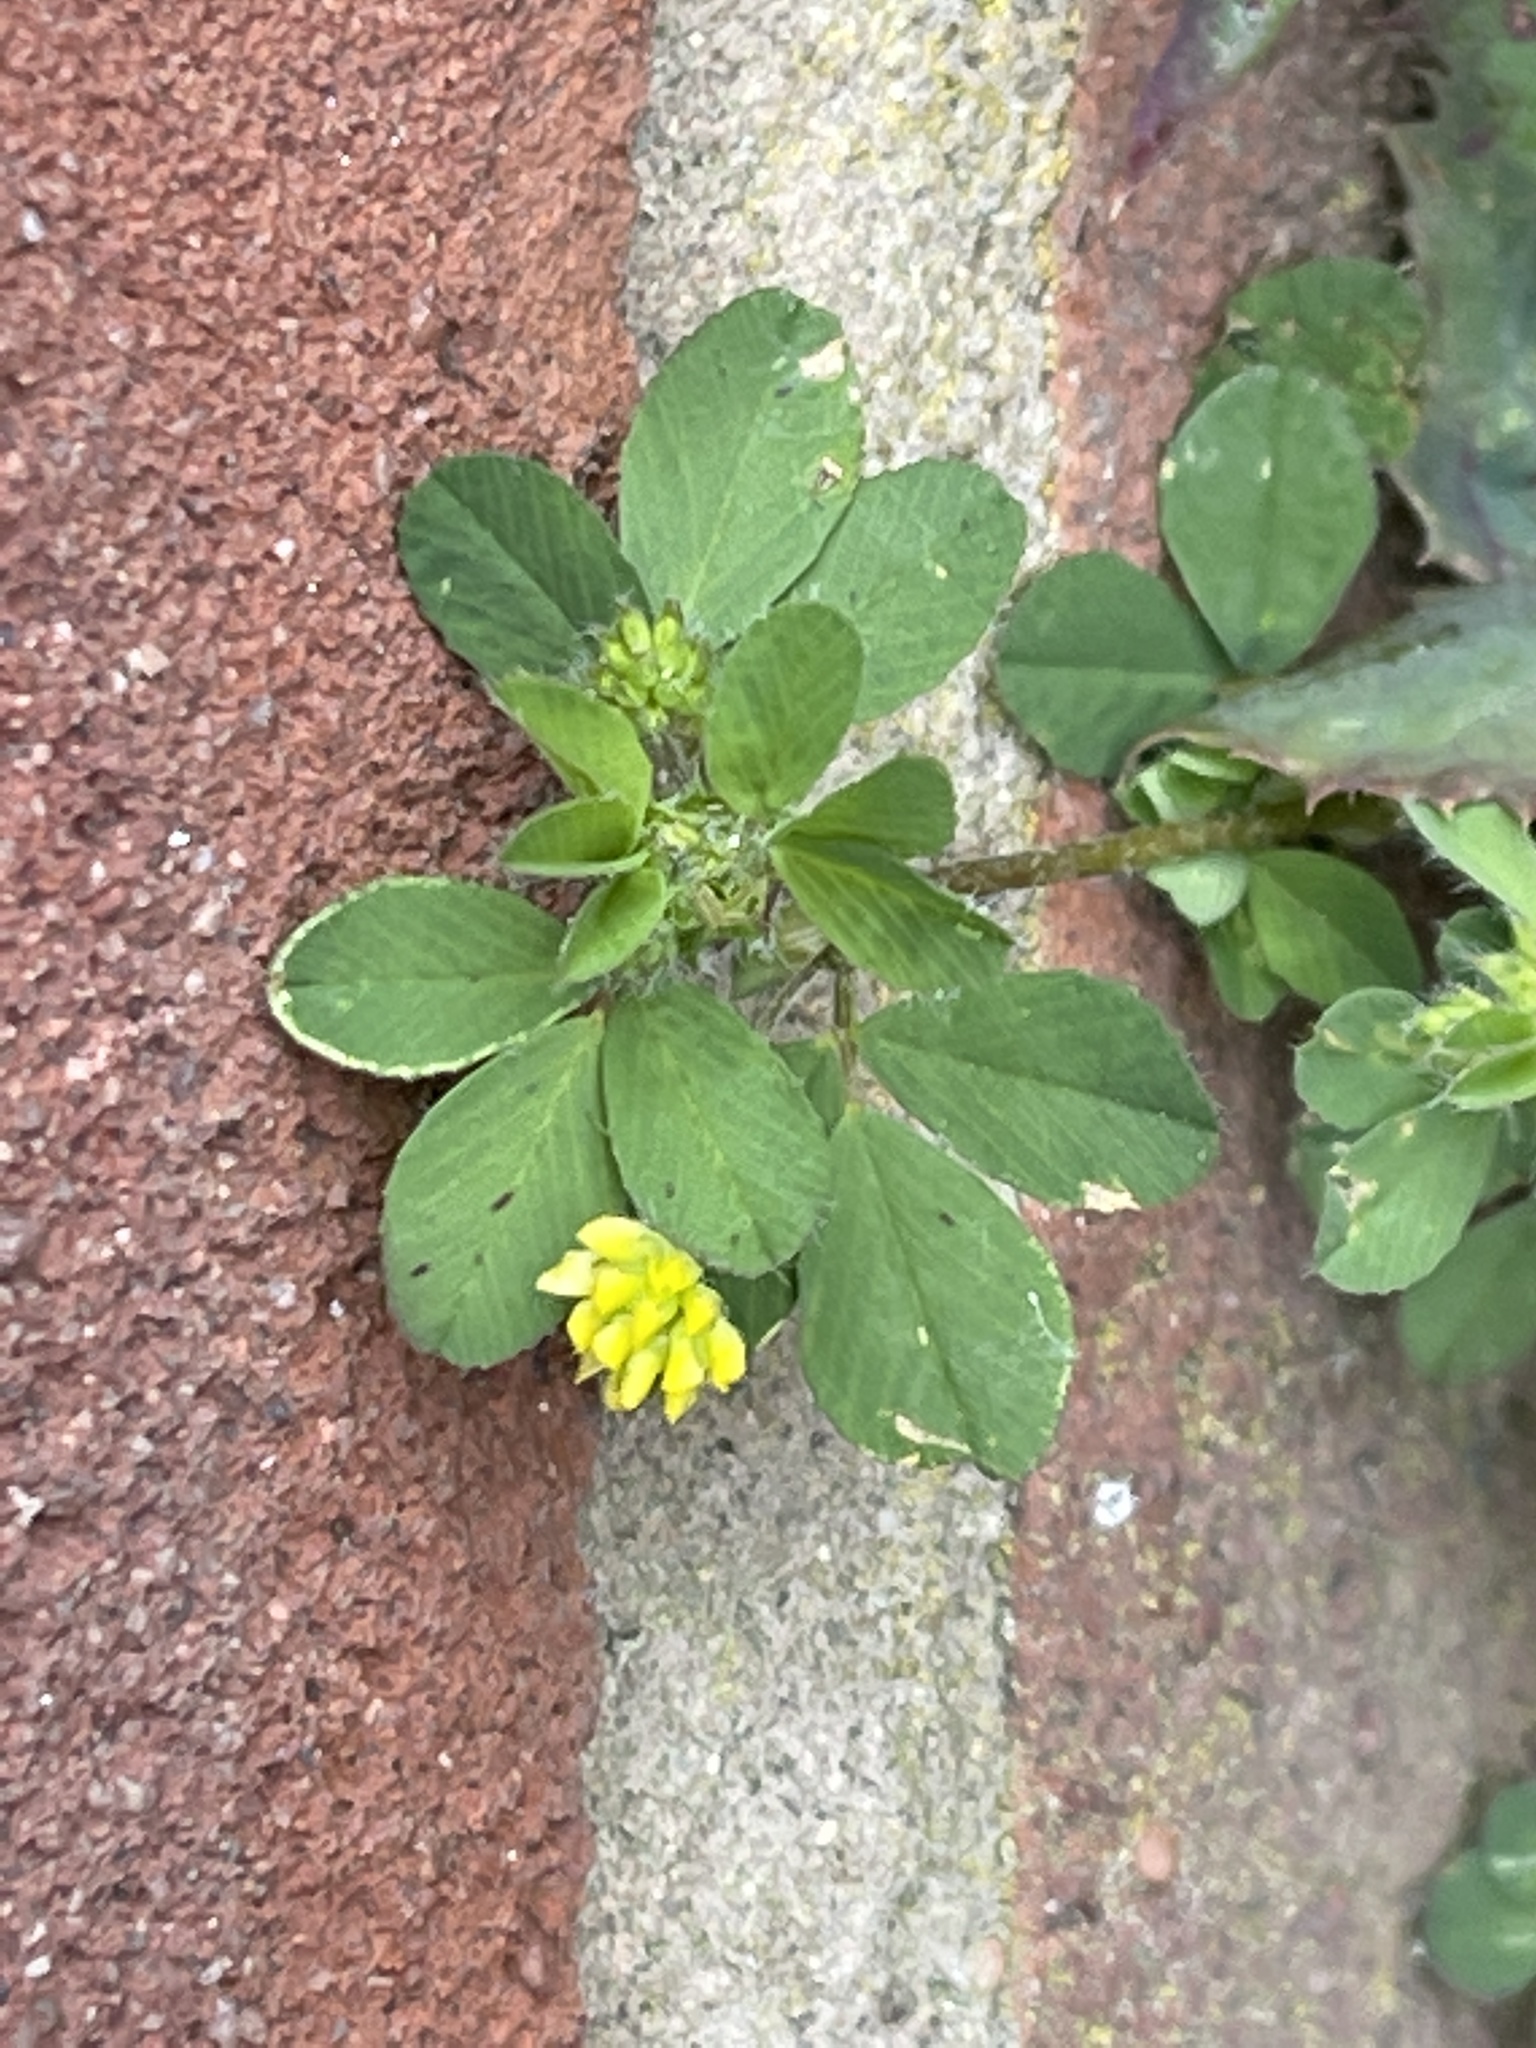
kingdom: Plantae
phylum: Tracheophyta
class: Magnoliopsida
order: Fabales
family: Fabaceae
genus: Trifolium
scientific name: Trifolium dubium
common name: Suckling clover
